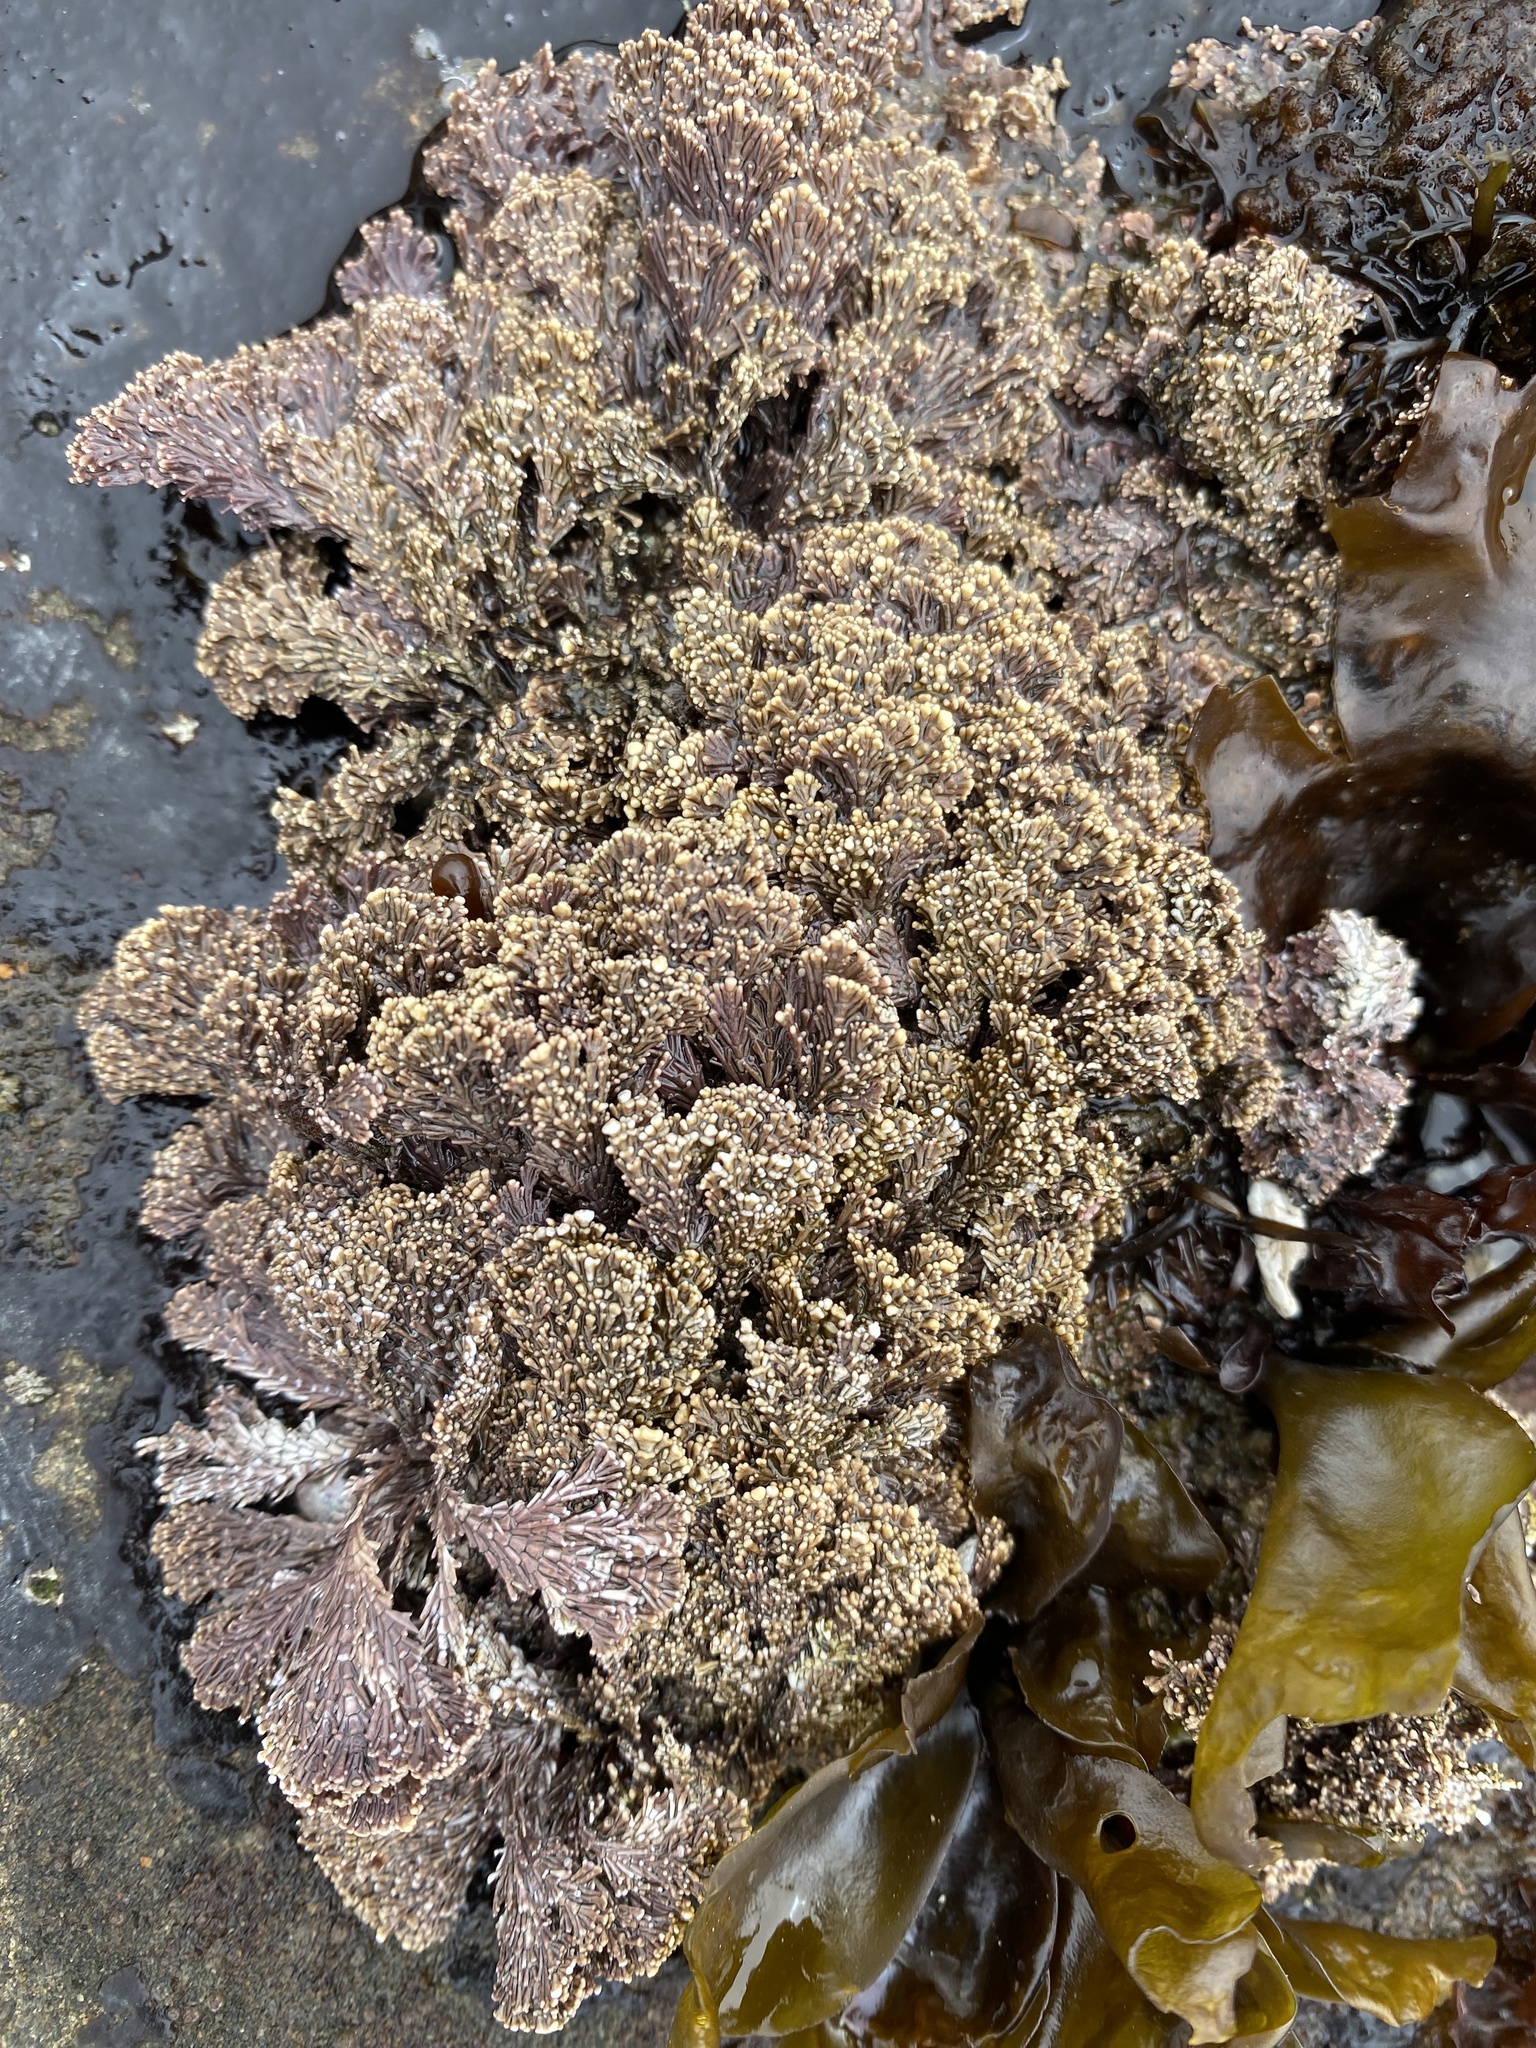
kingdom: Plantae
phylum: Rhodophyta
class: Florideophyceae
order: Corallinales
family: Corallinaceae
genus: Corallina
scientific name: Corallina vancouveriensis
